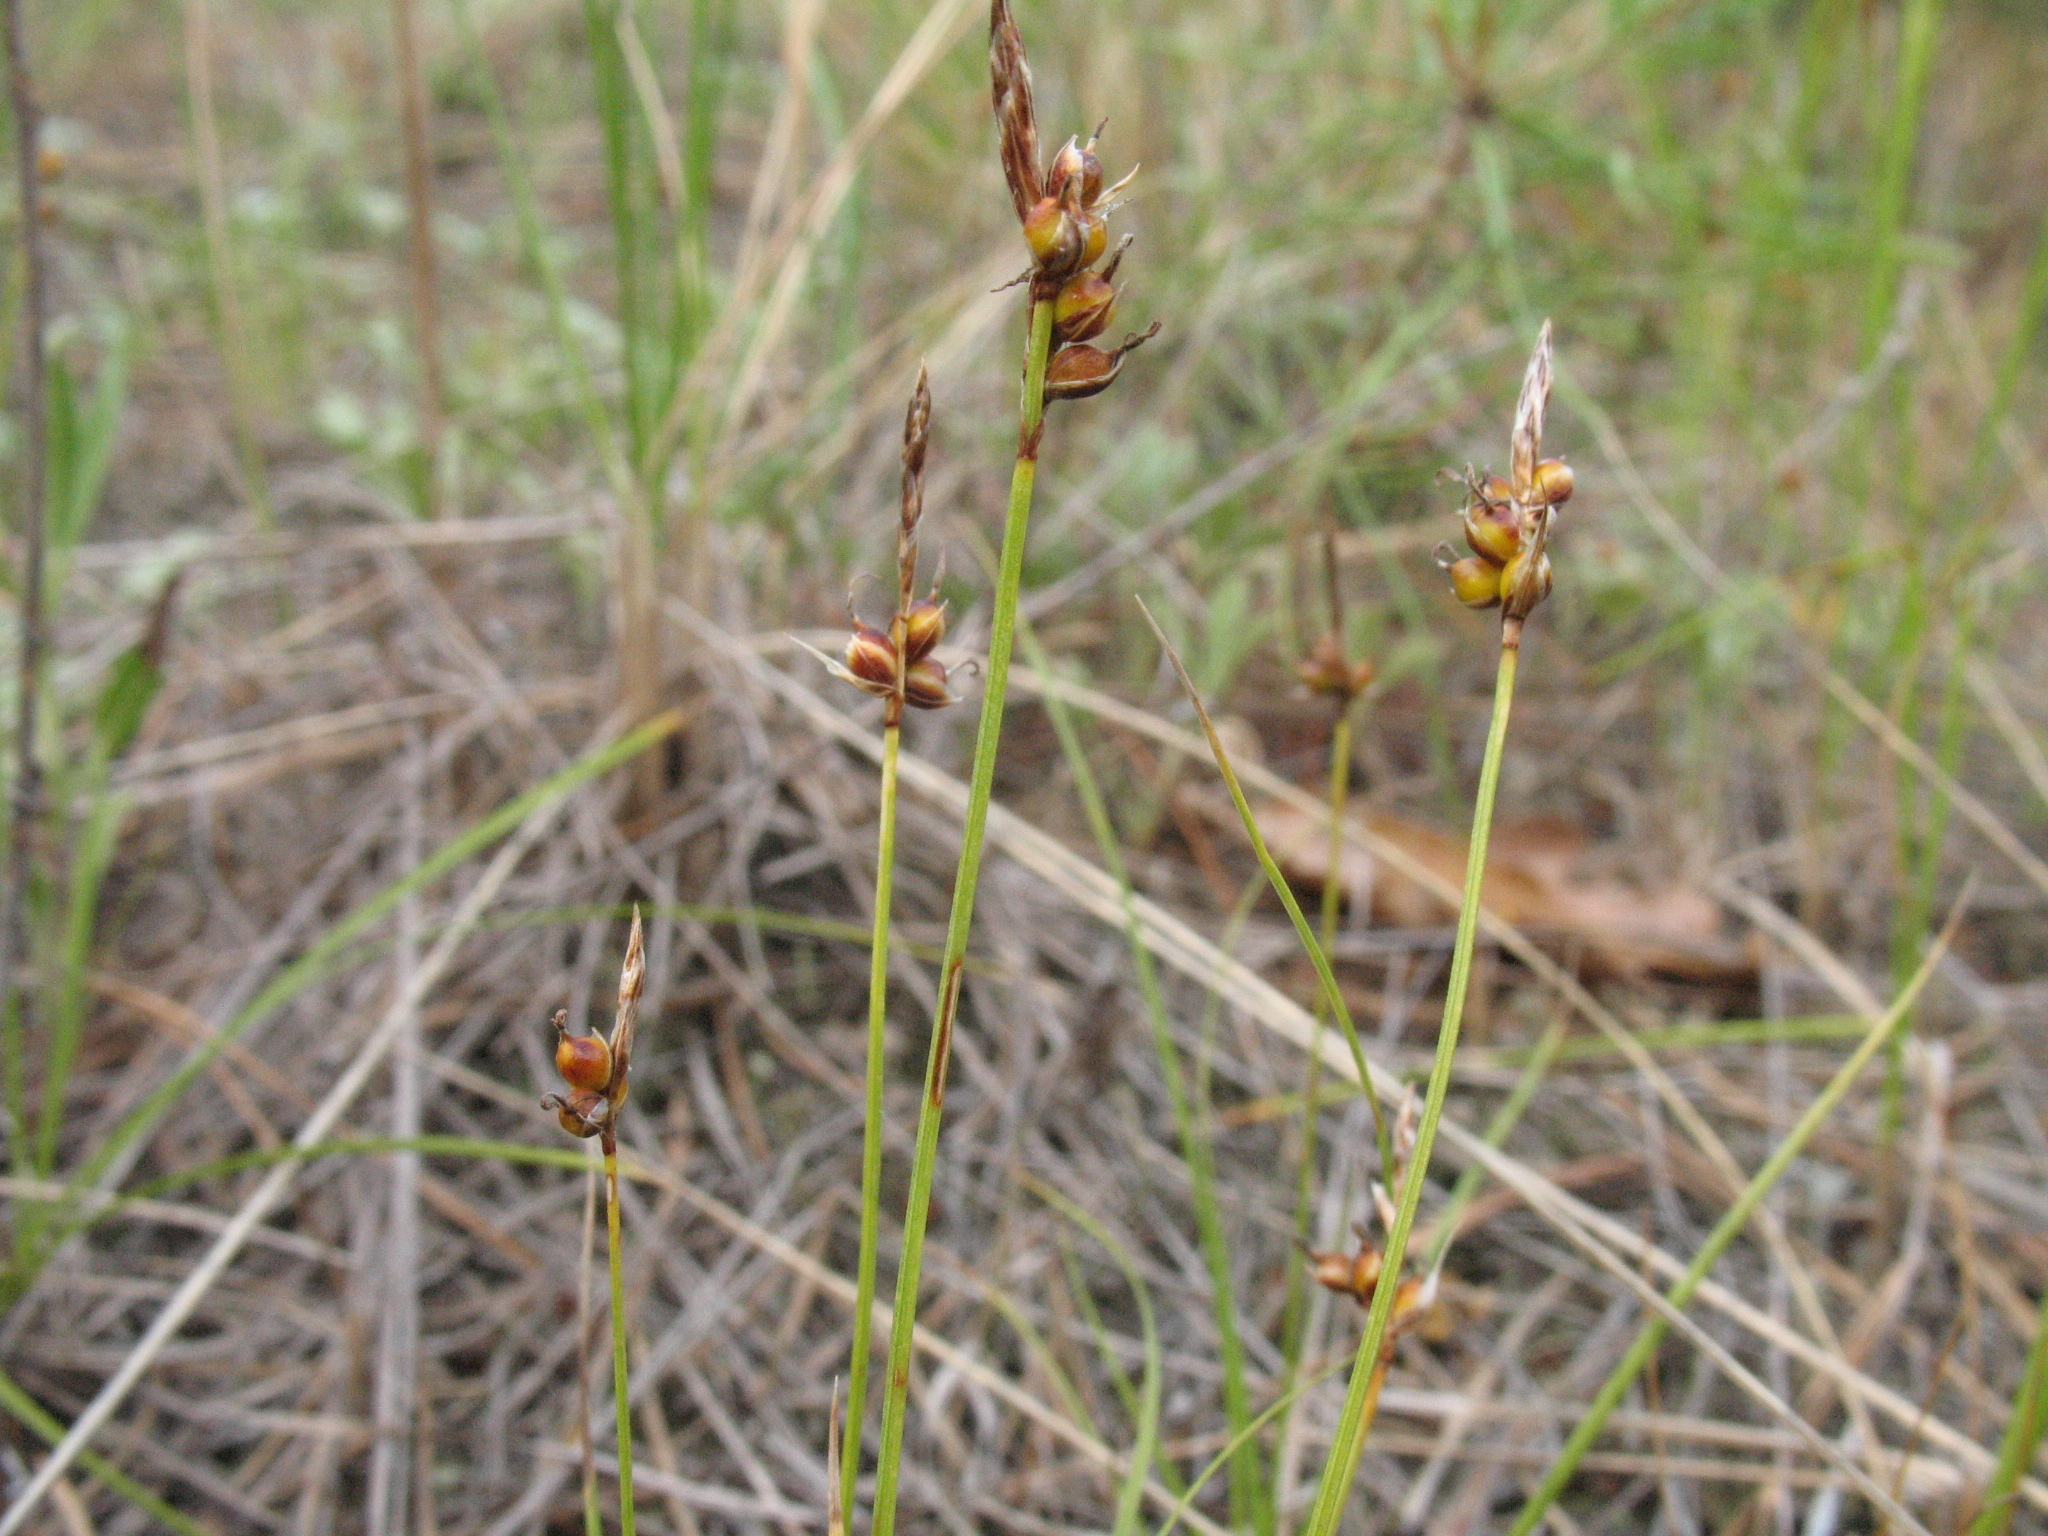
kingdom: Plantae
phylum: Tracheophyta
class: Liliopsida
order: Poales
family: Cyperaceae
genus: Carex
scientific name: Carex supina
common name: Lying-back sedge
